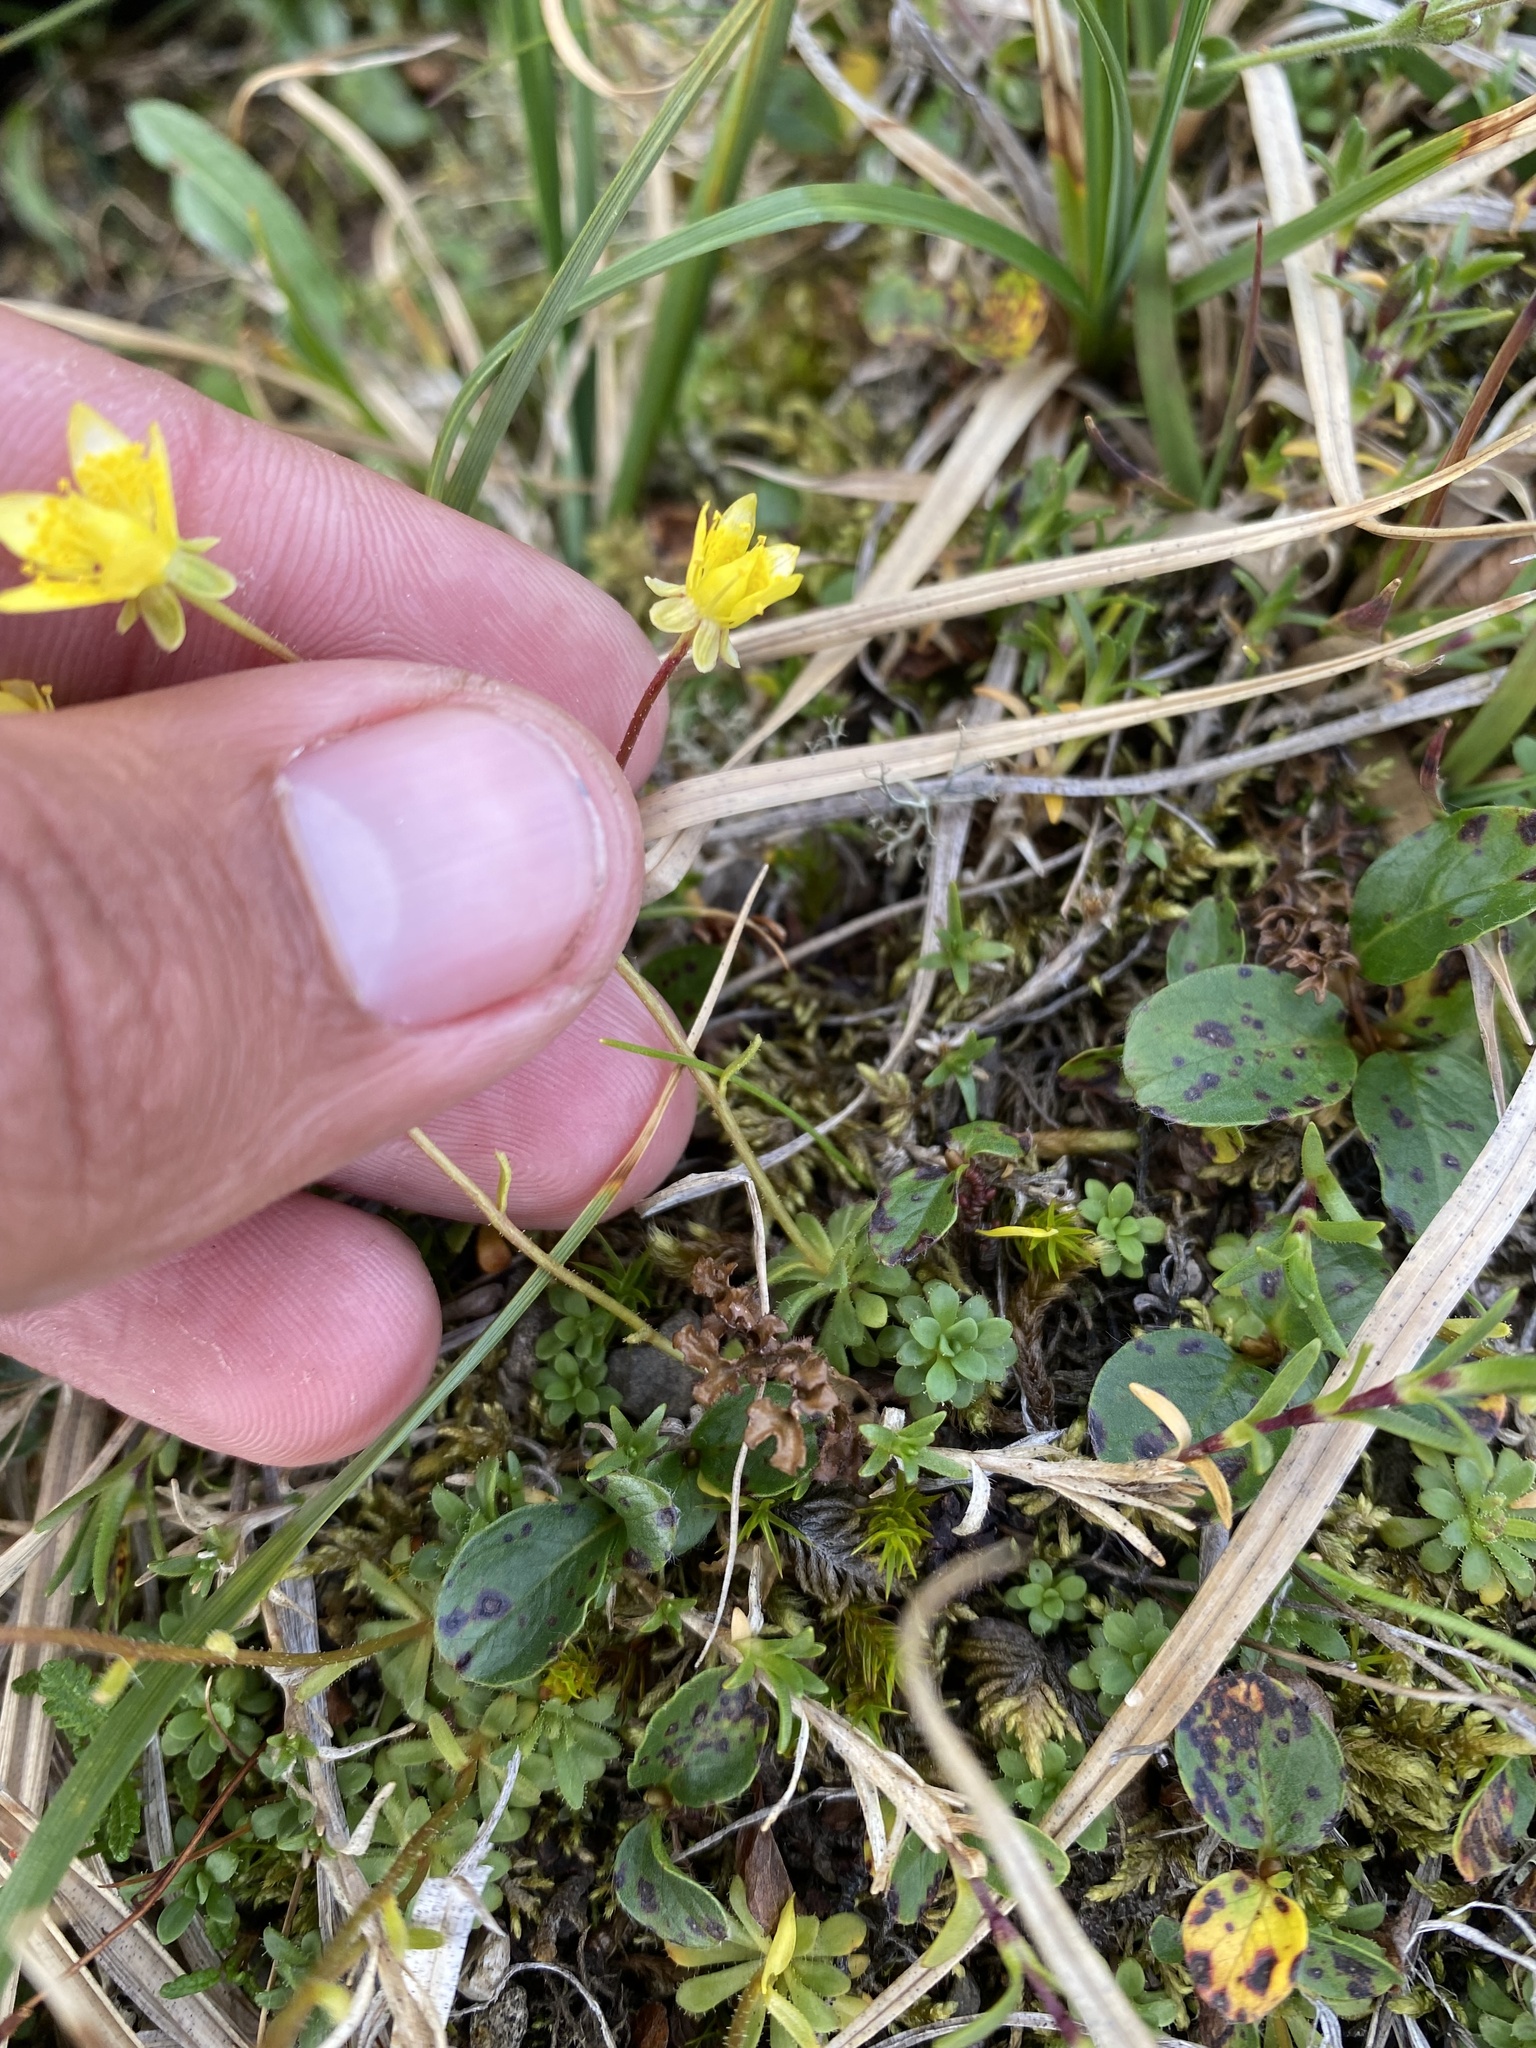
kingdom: Plantae
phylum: Tracheophyta
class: Magnoliopsida
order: Saxifragales
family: Saxifragaceae
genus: Saxifraga
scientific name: Saxifraga serpyllifolia
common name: Thyme-leaved saxifrage
